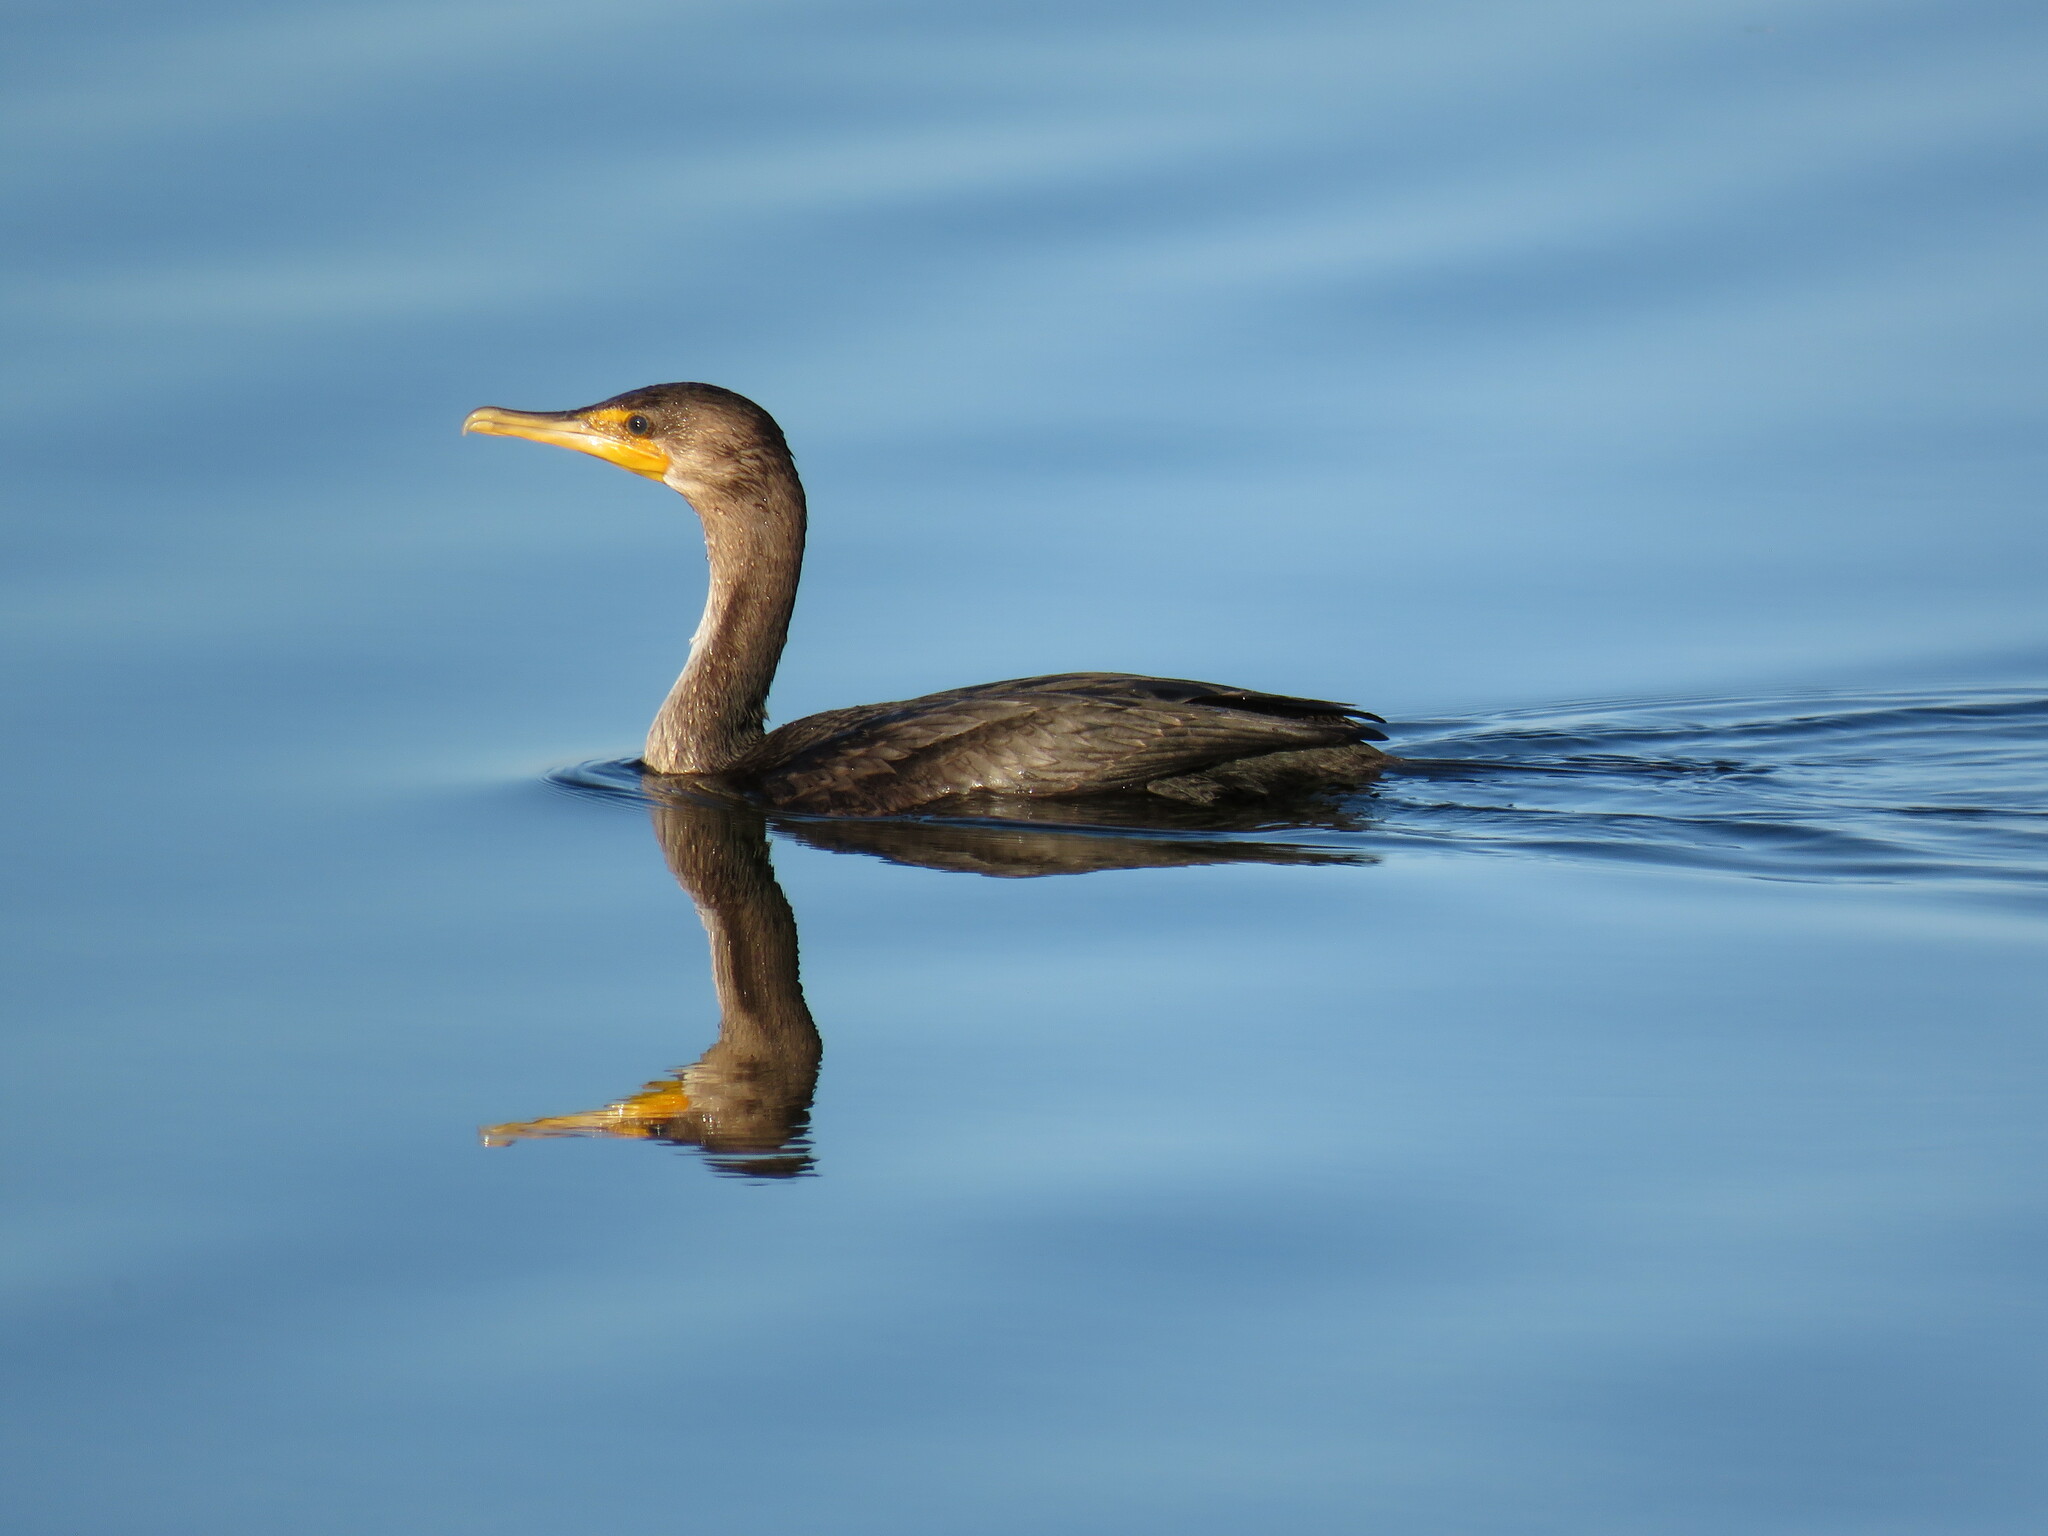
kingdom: Animalia
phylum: Chordata
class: Aves
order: Suliformes
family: Phalacrocoracidae
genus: Phalacrocorax
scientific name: Phalacrocorax auritus
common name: Double-crested cormorant
